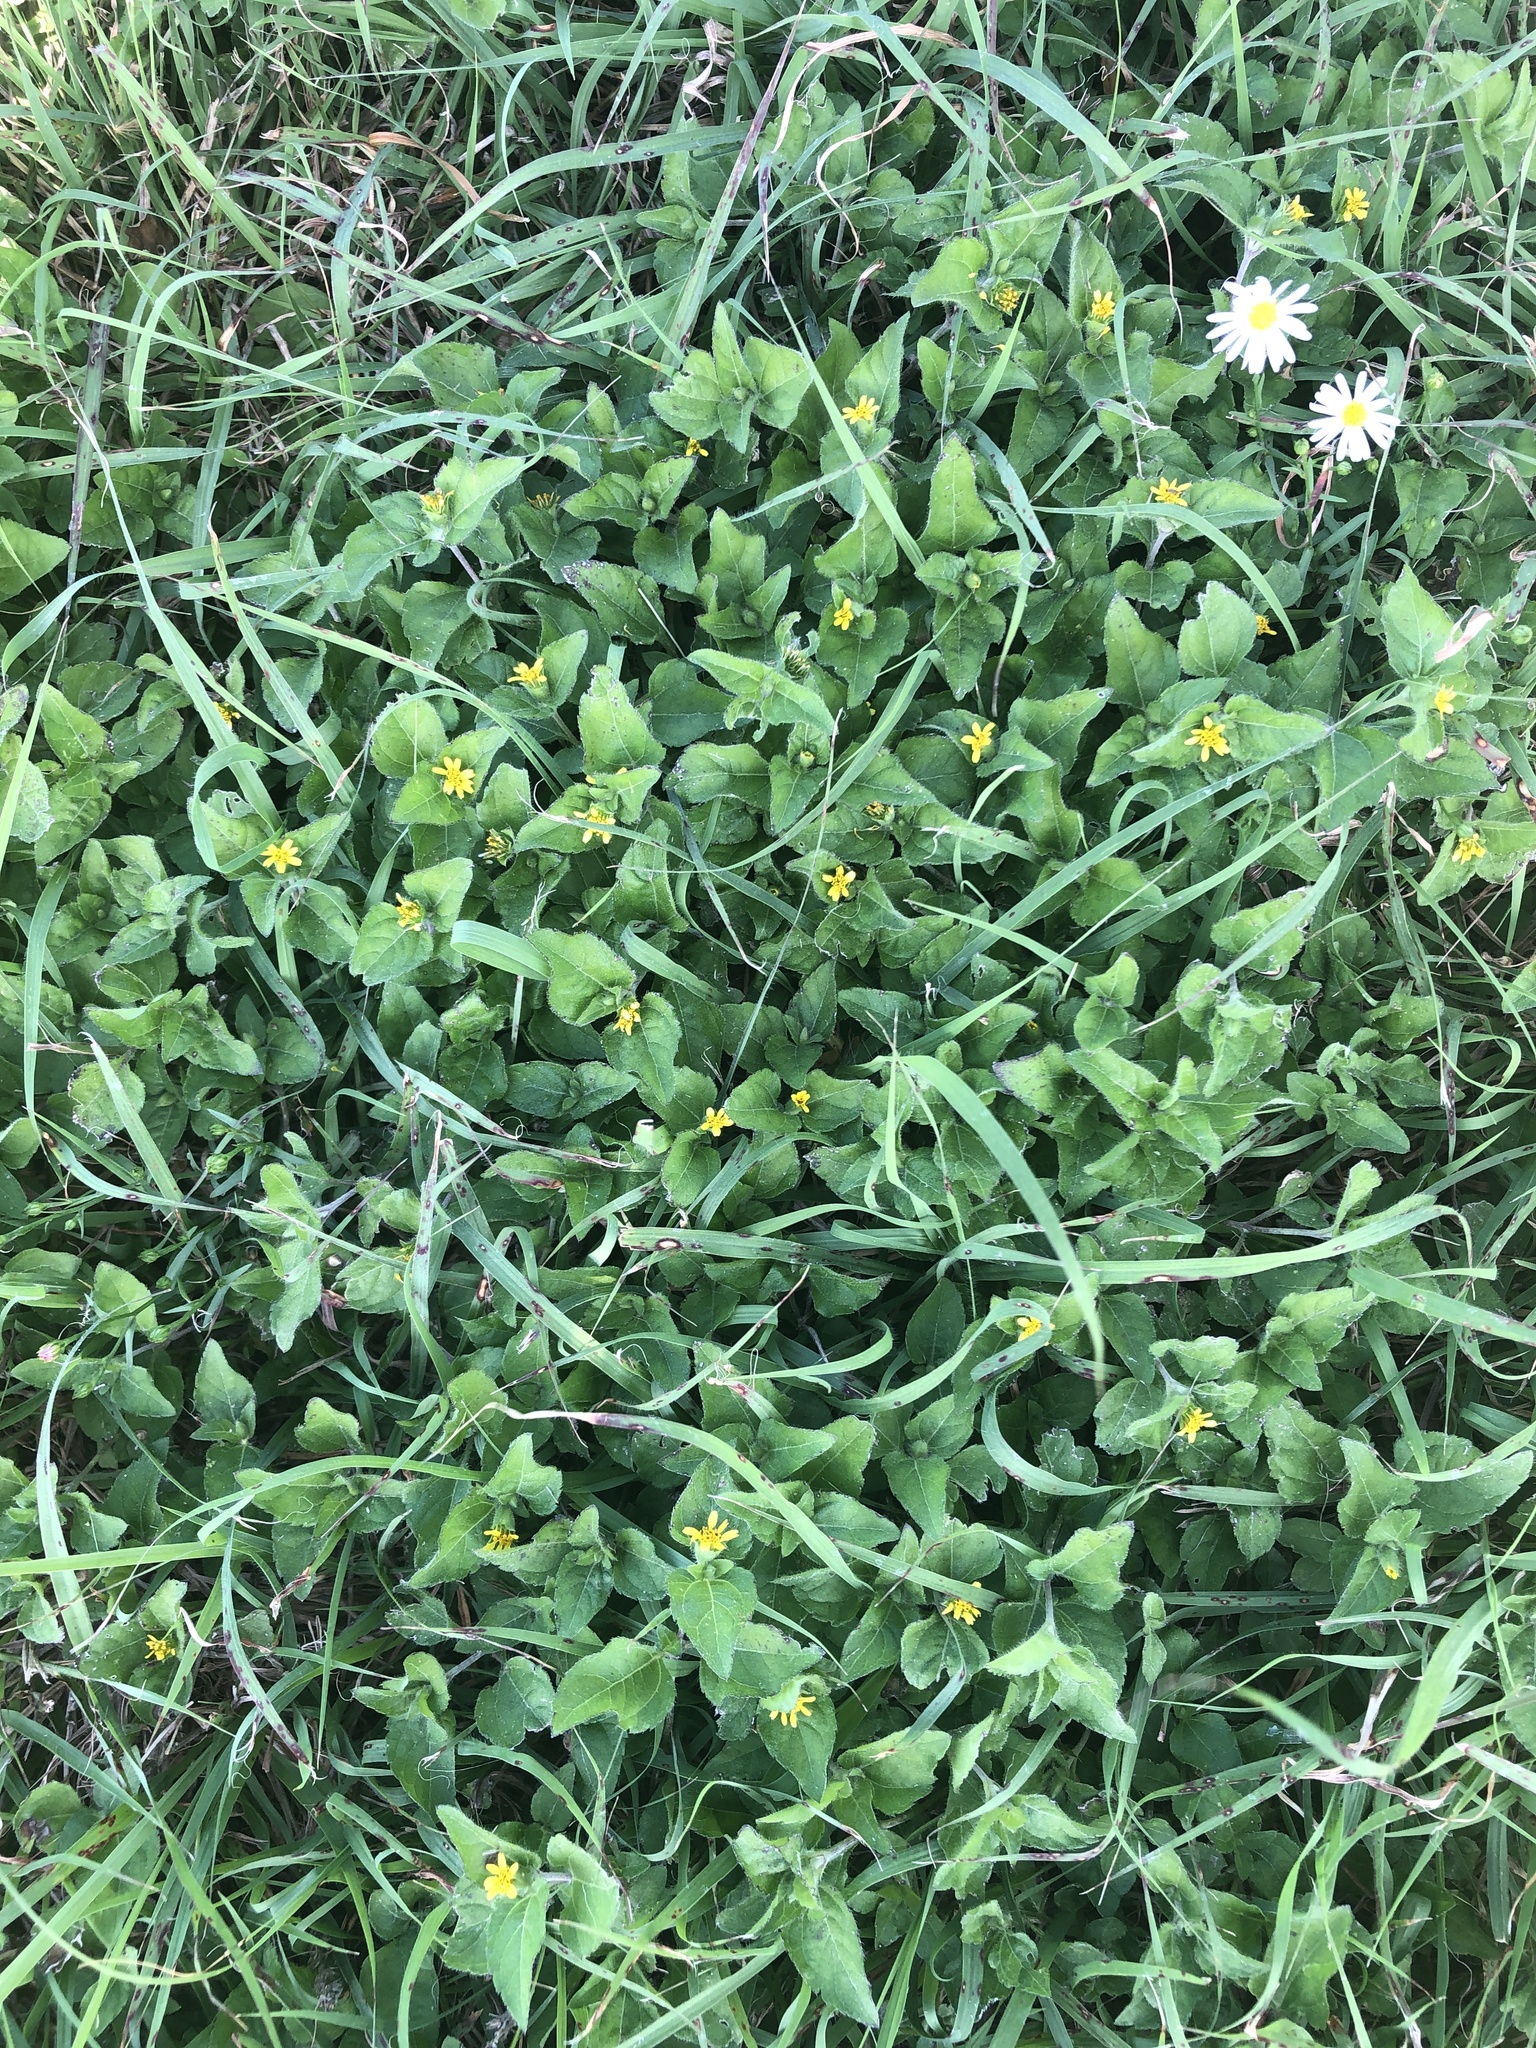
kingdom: Plantae
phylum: Tracheophyta
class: Magnoliopsida
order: Asterales
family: Asteraceae
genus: Calyptocarpus
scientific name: Calyptocarpus vialis
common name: Straggler daisy
